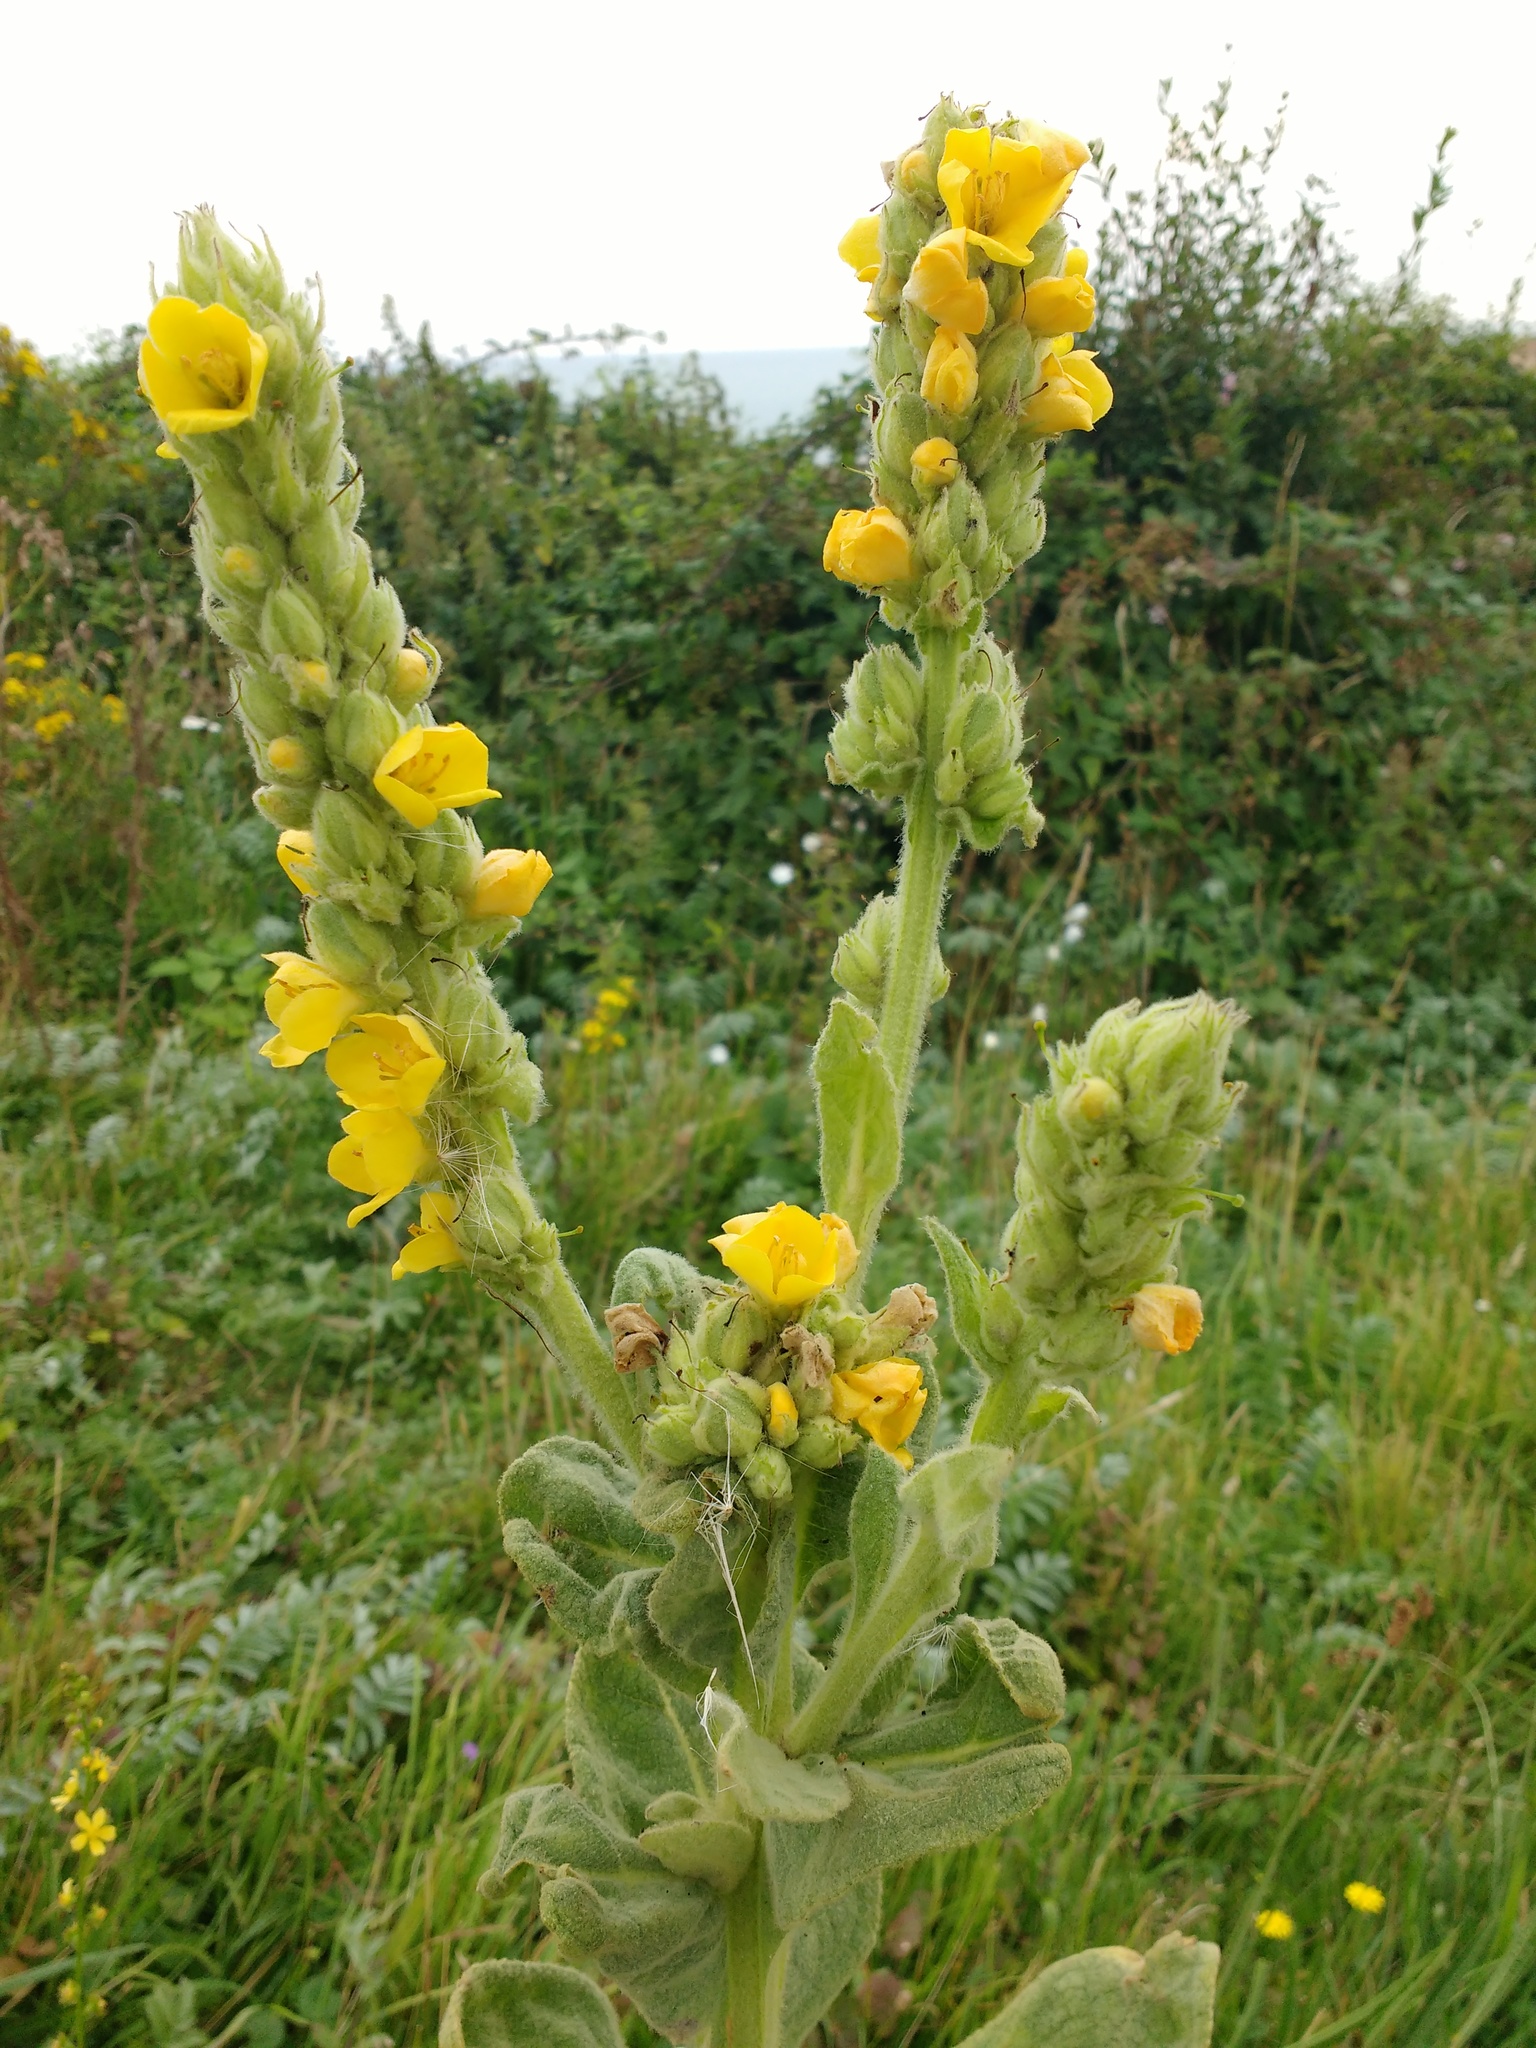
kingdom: Plantae
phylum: Tracheophyta
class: Magnoliopsida
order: Lamiales
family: Scrophulariaceae
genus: Verbascum
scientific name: Verbascum thapsus
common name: Common mullein
